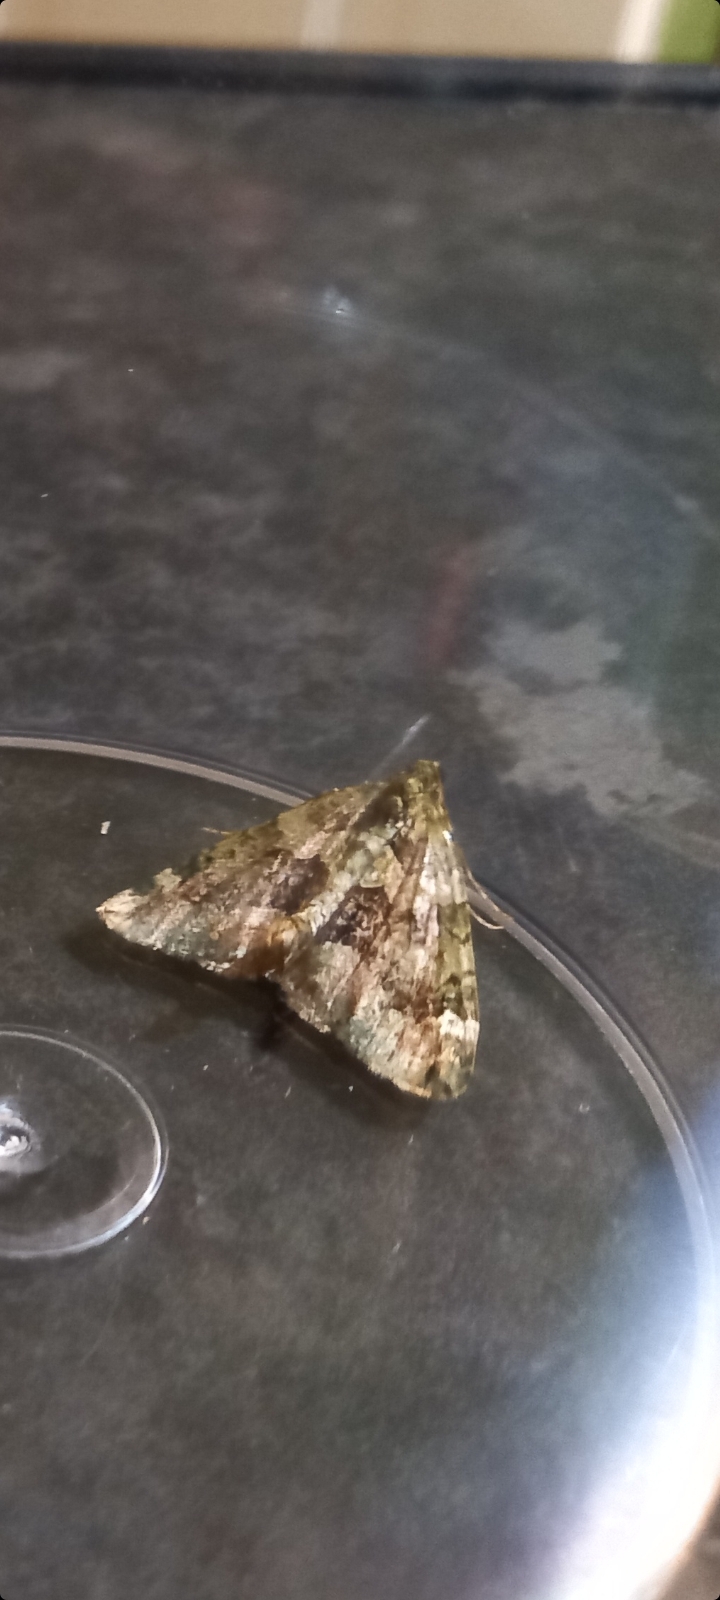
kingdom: Animalia
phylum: Arthropoda
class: Insecta
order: Lepidoptera
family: Geometridae
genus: Chloroclysta
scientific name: Chloroclysta siterata
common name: Red-green carpet
